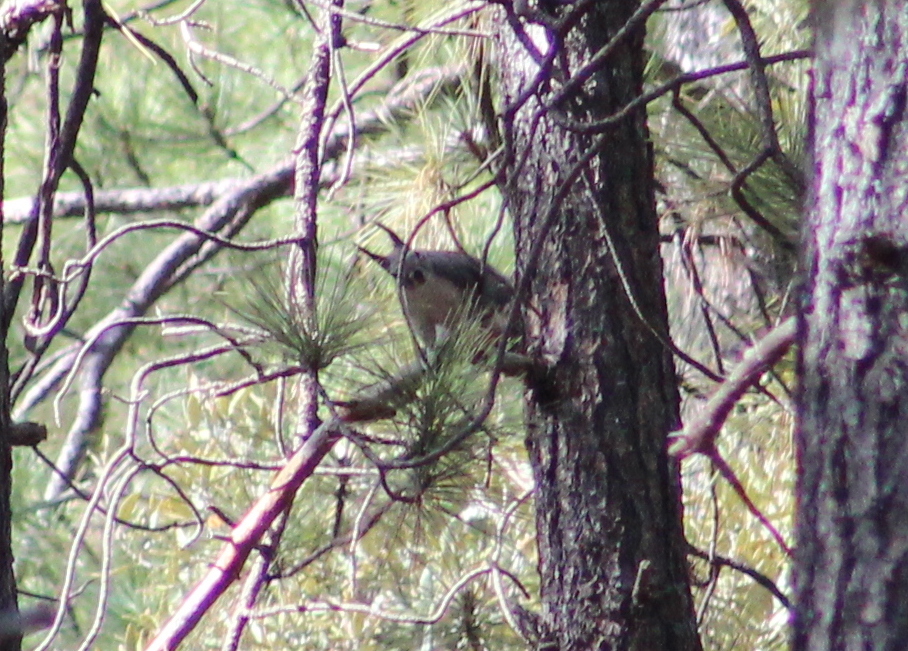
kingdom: Animalia
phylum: Chordata
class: Mammalia
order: Rodentia
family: Sciuridae
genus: Sciurus
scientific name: Sciurus aberti
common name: Abert's squirrel
